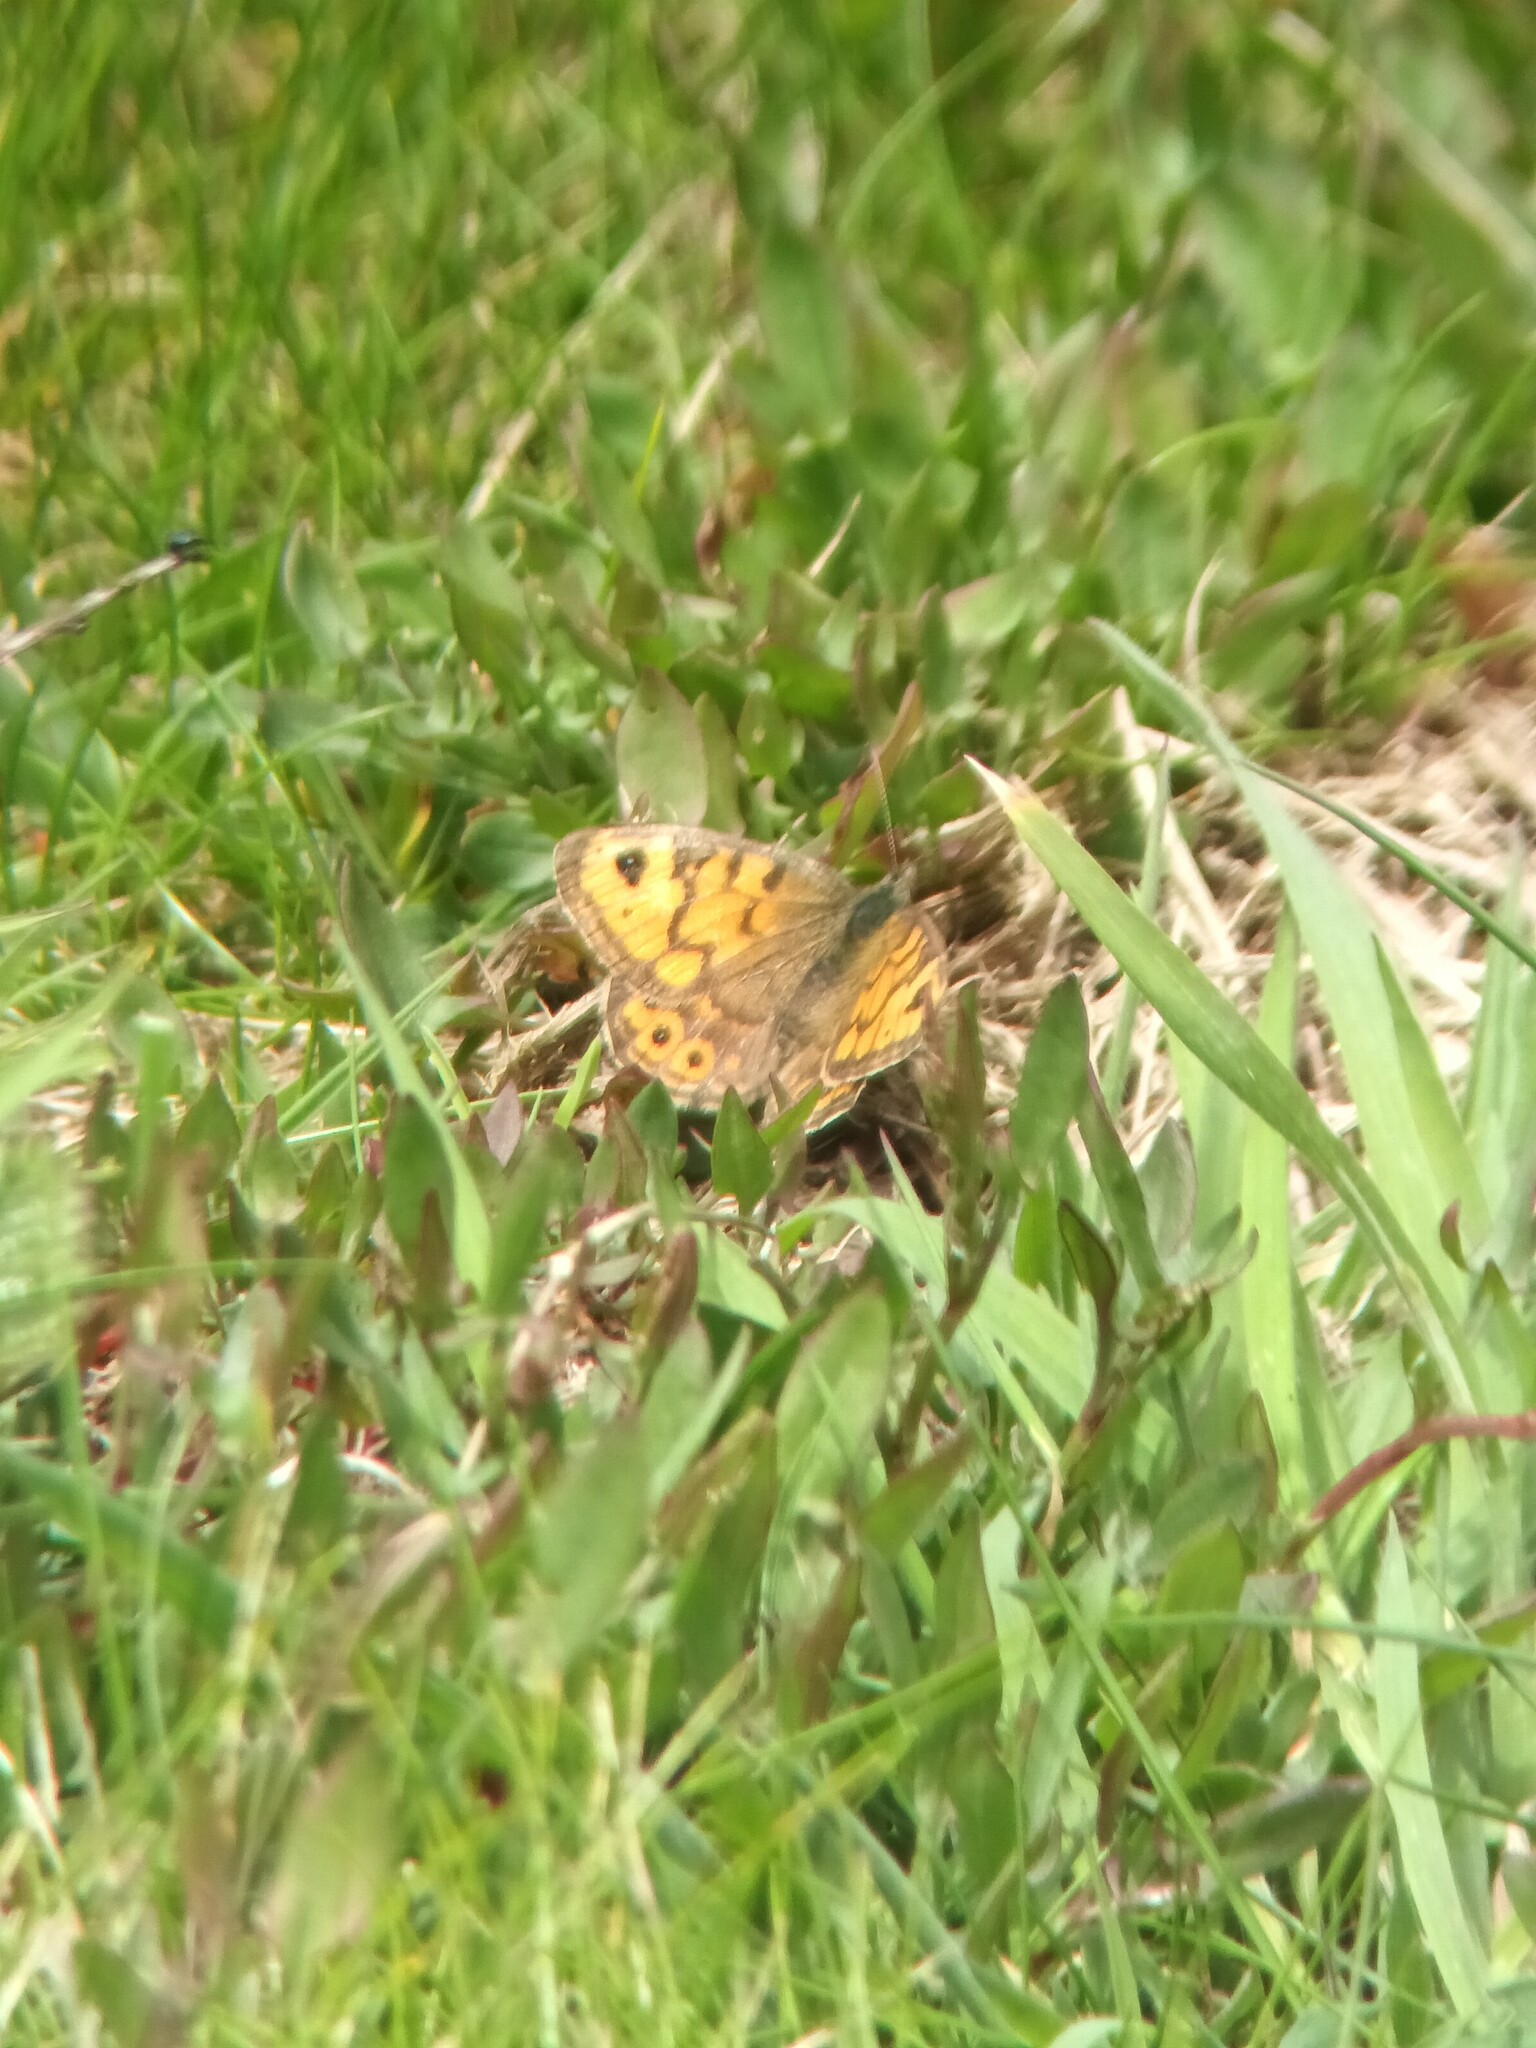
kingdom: Animalia
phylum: Arthropoda
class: Insecta
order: Lepidoptera
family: Nymphalidae
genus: Pararge
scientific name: Pararge Lasiommata megera
